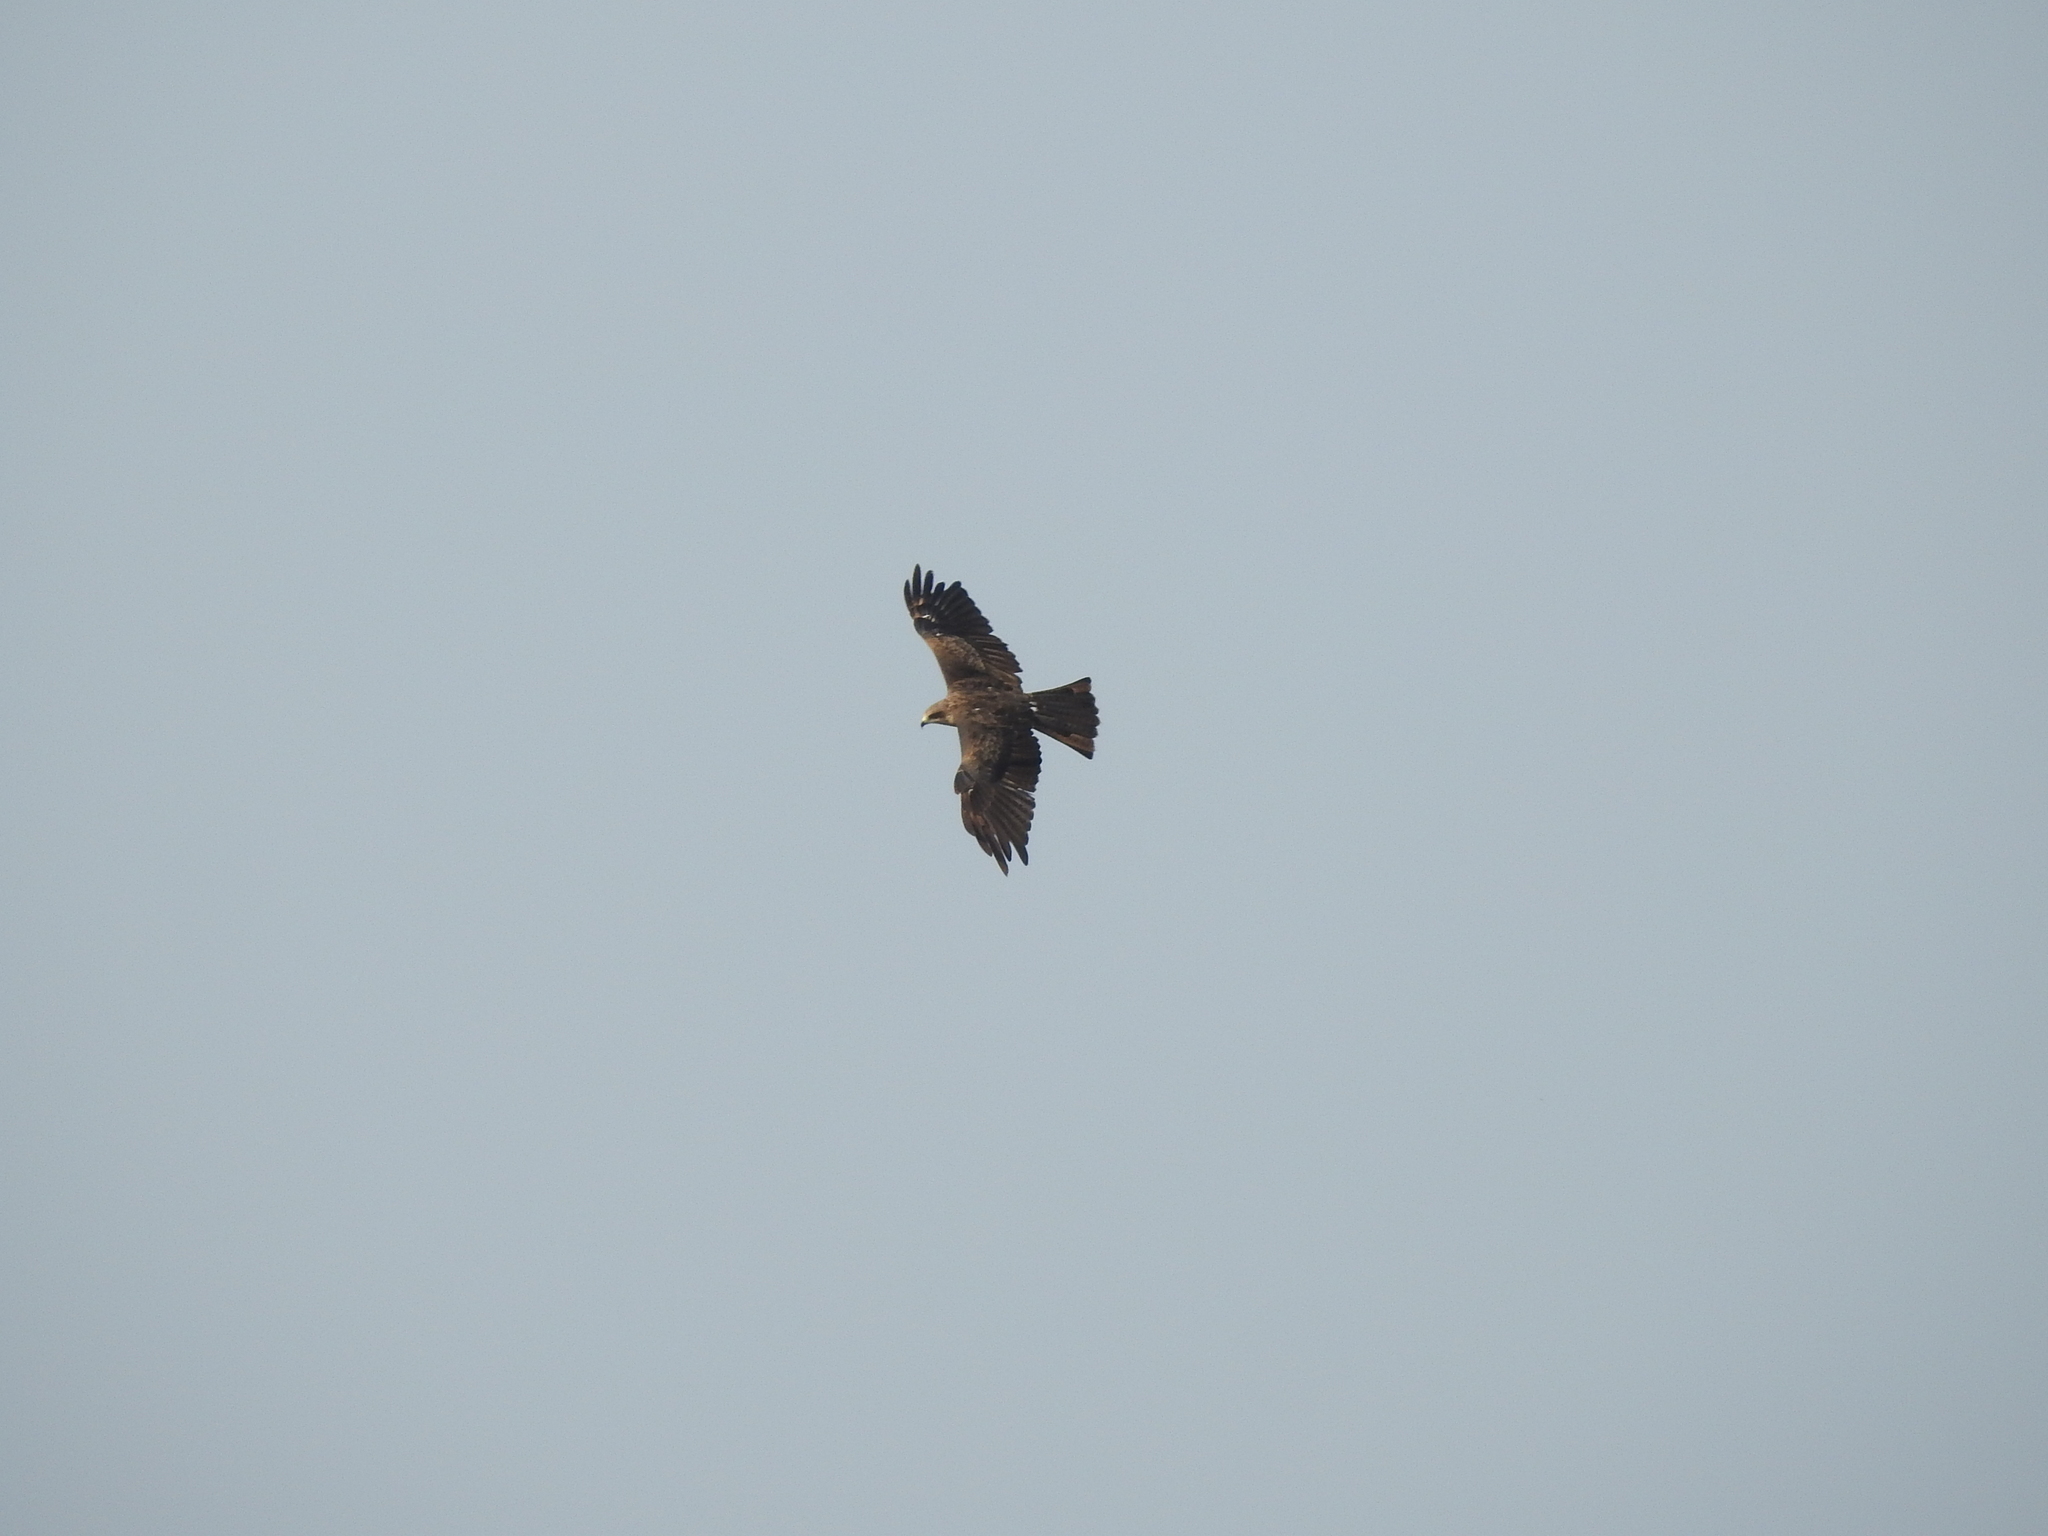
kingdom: Animalia
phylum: Chordata
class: Aves
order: Accipitriformes
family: Accipitridae
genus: Milvus
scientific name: Milvus migrans
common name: Black kite
